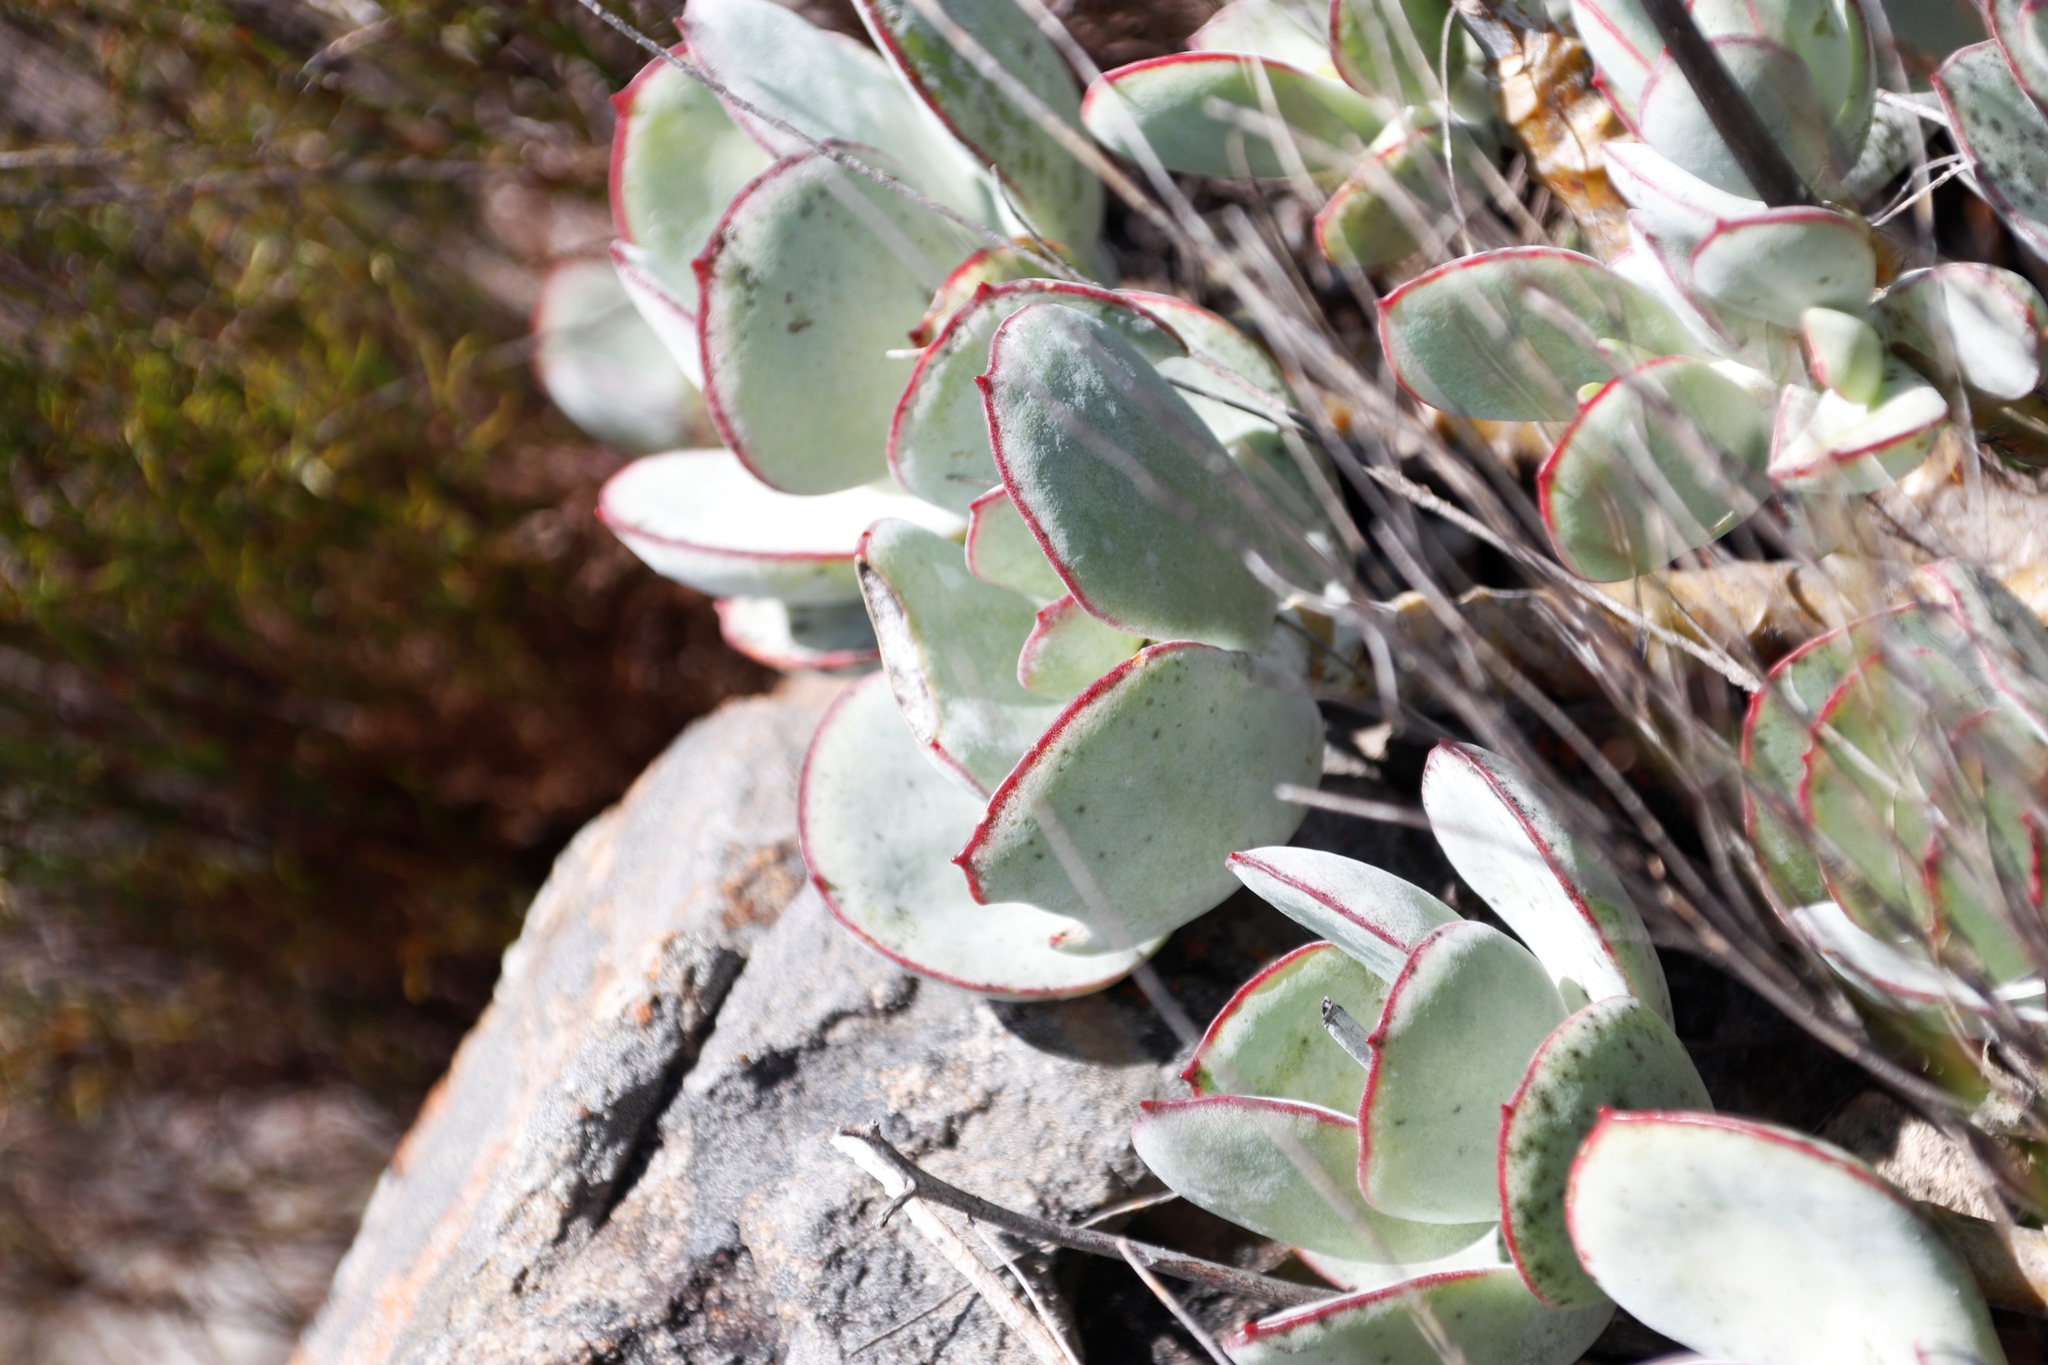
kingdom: Plantae
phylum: Tracheophyta
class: Magnoliopsida
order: Saxifragales
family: Crassulaceae
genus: Cotyledon
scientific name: Cotyledon orbiculata
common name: Pig's ear
